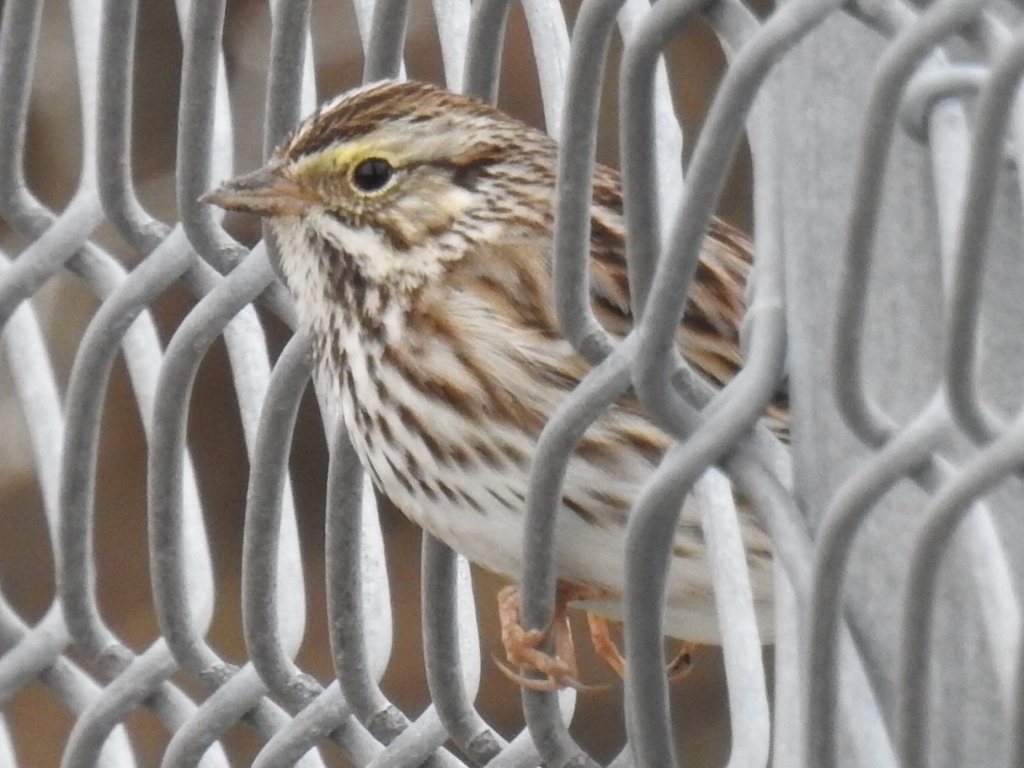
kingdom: Animalia
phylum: Chordata
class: Aves
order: Passeriformes
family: Passerellidae
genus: Passerculus
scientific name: Passerculus sandwichensis
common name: Savannah sparrow
